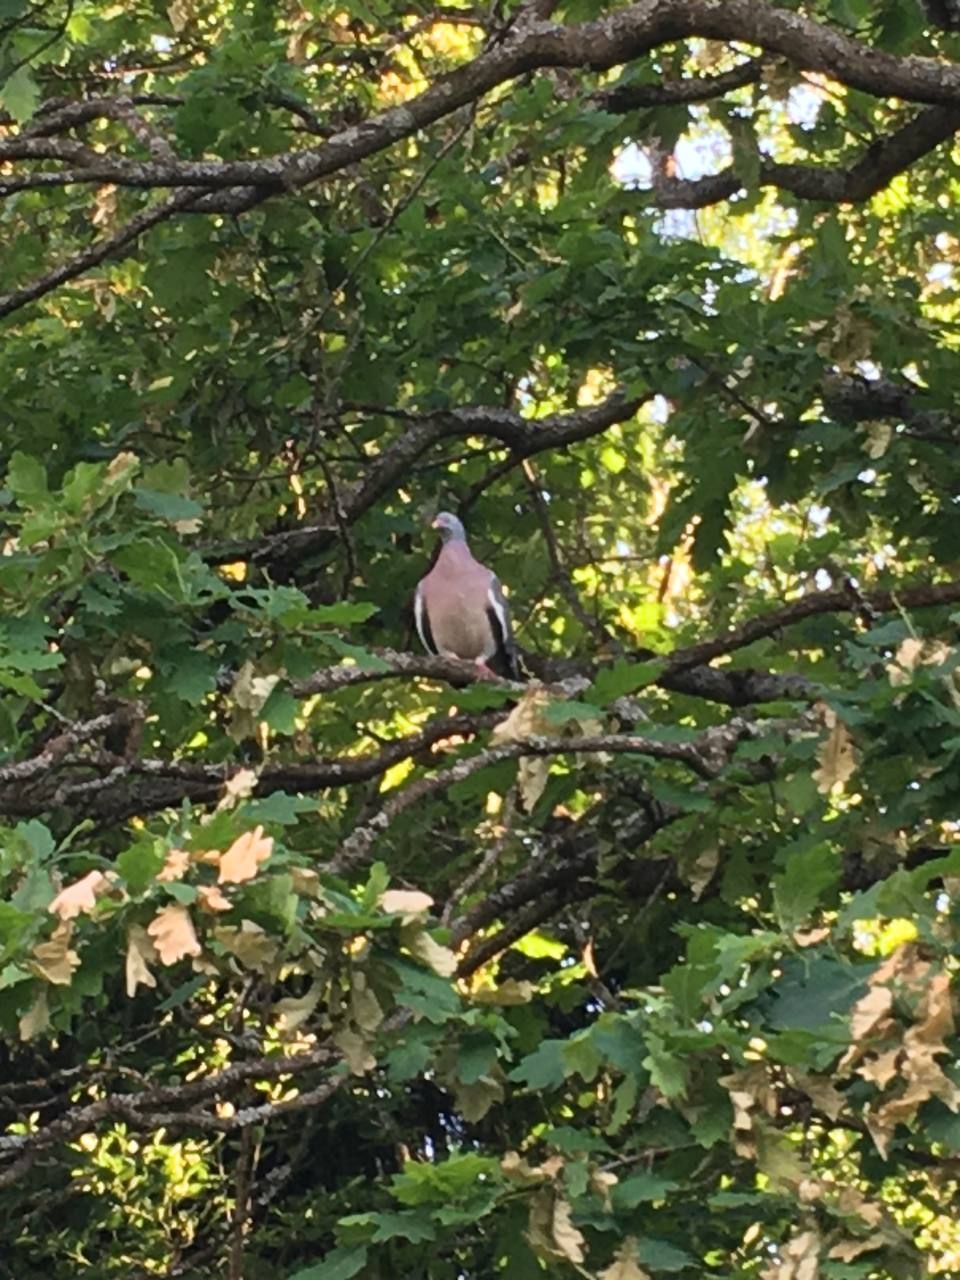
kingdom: Animalia
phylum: Chordata
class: Aves
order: Columbiformes
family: Columbidae
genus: Columba
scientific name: Columba palumbus
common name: Common wood pigeon
